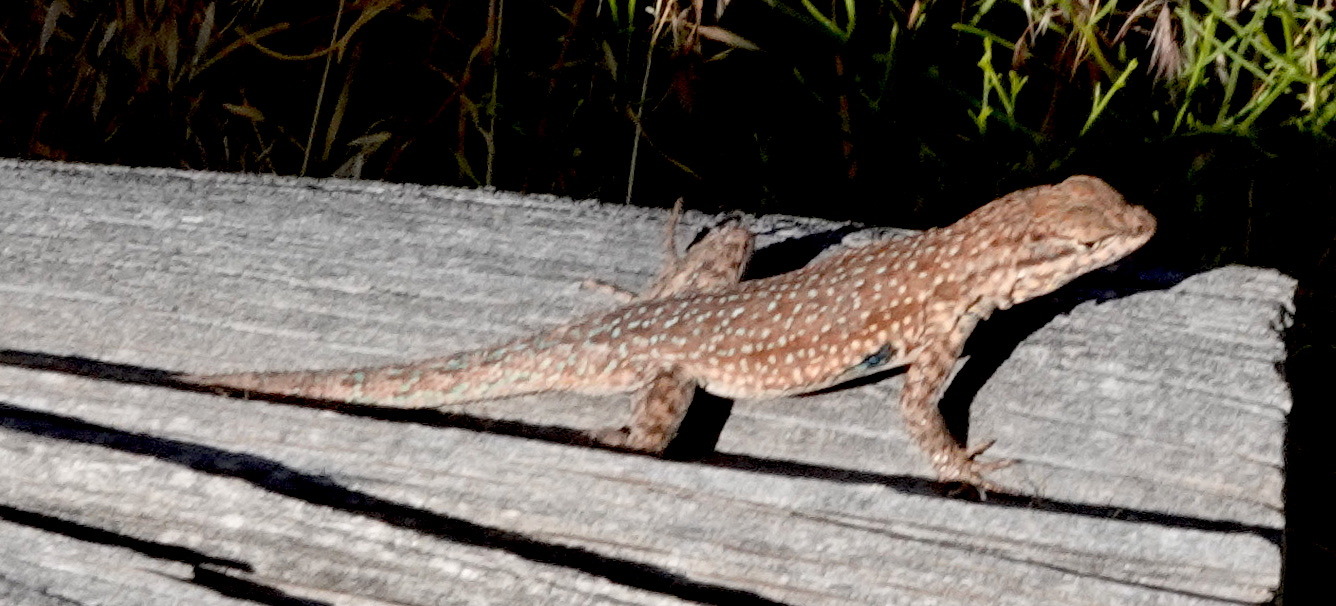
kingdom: Animalia
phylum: Chordata
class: Squamata
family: Phrynosomatidae
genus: Uta
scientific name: Uta stansburiana
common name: Side-blotched lizard
